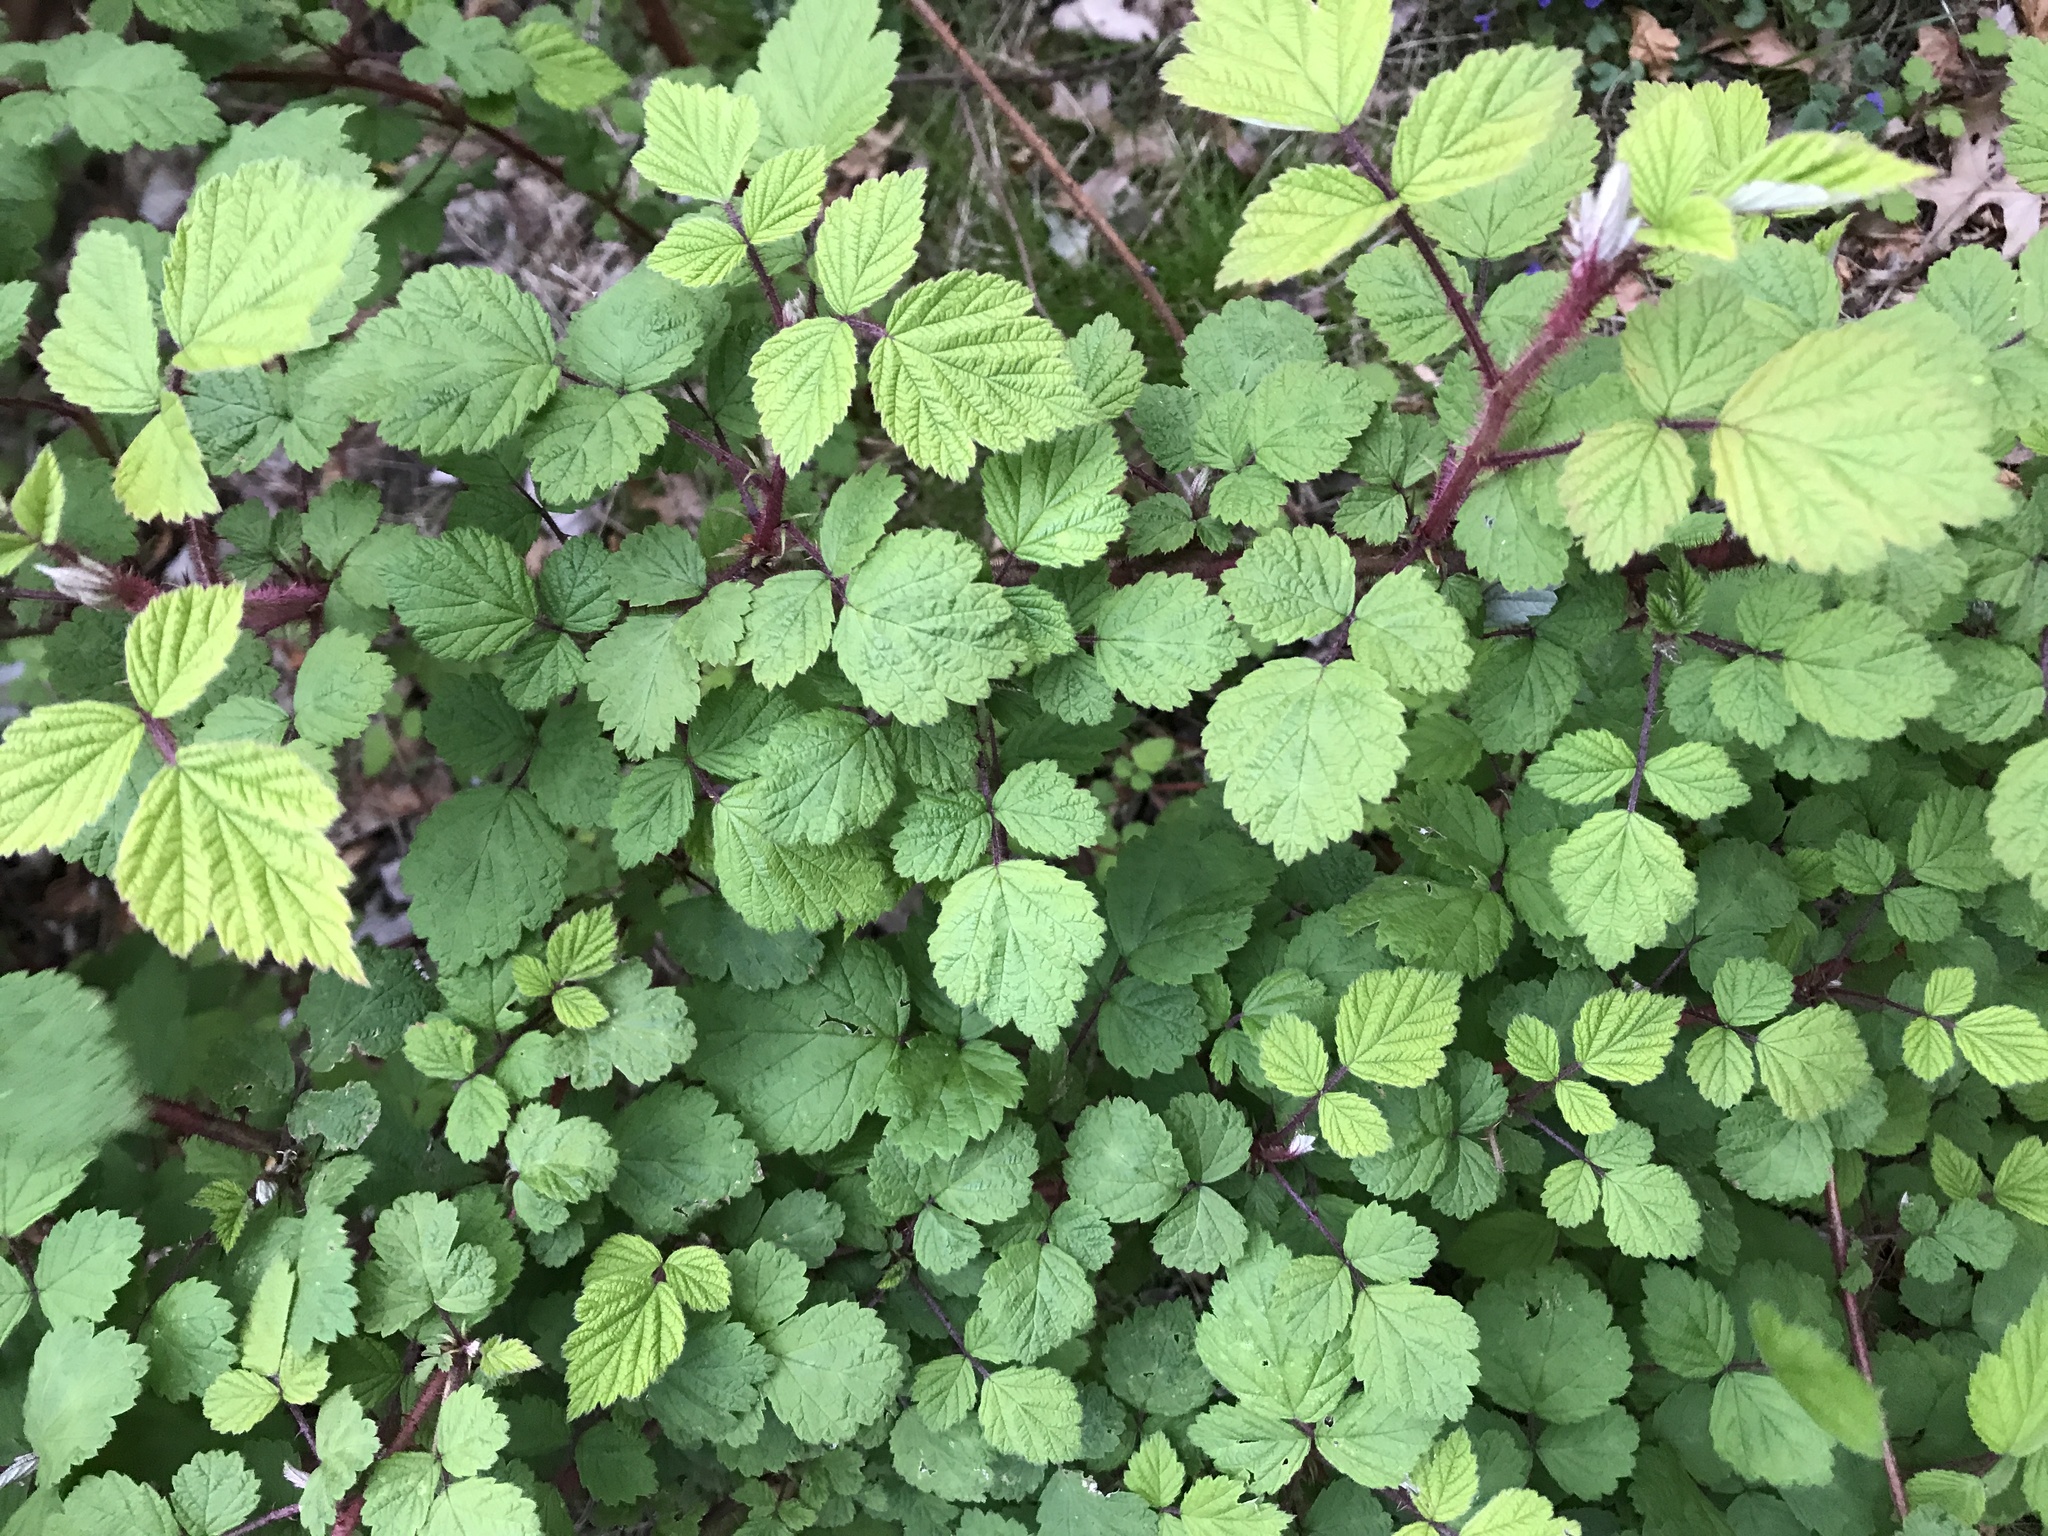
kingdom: Plantae
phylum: Tracheophyta
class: Magnoliopsida
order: Rosales
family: Rosaceae
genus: Rubus
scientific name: Rubus phoenicolasius
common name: Japanese wineberry
